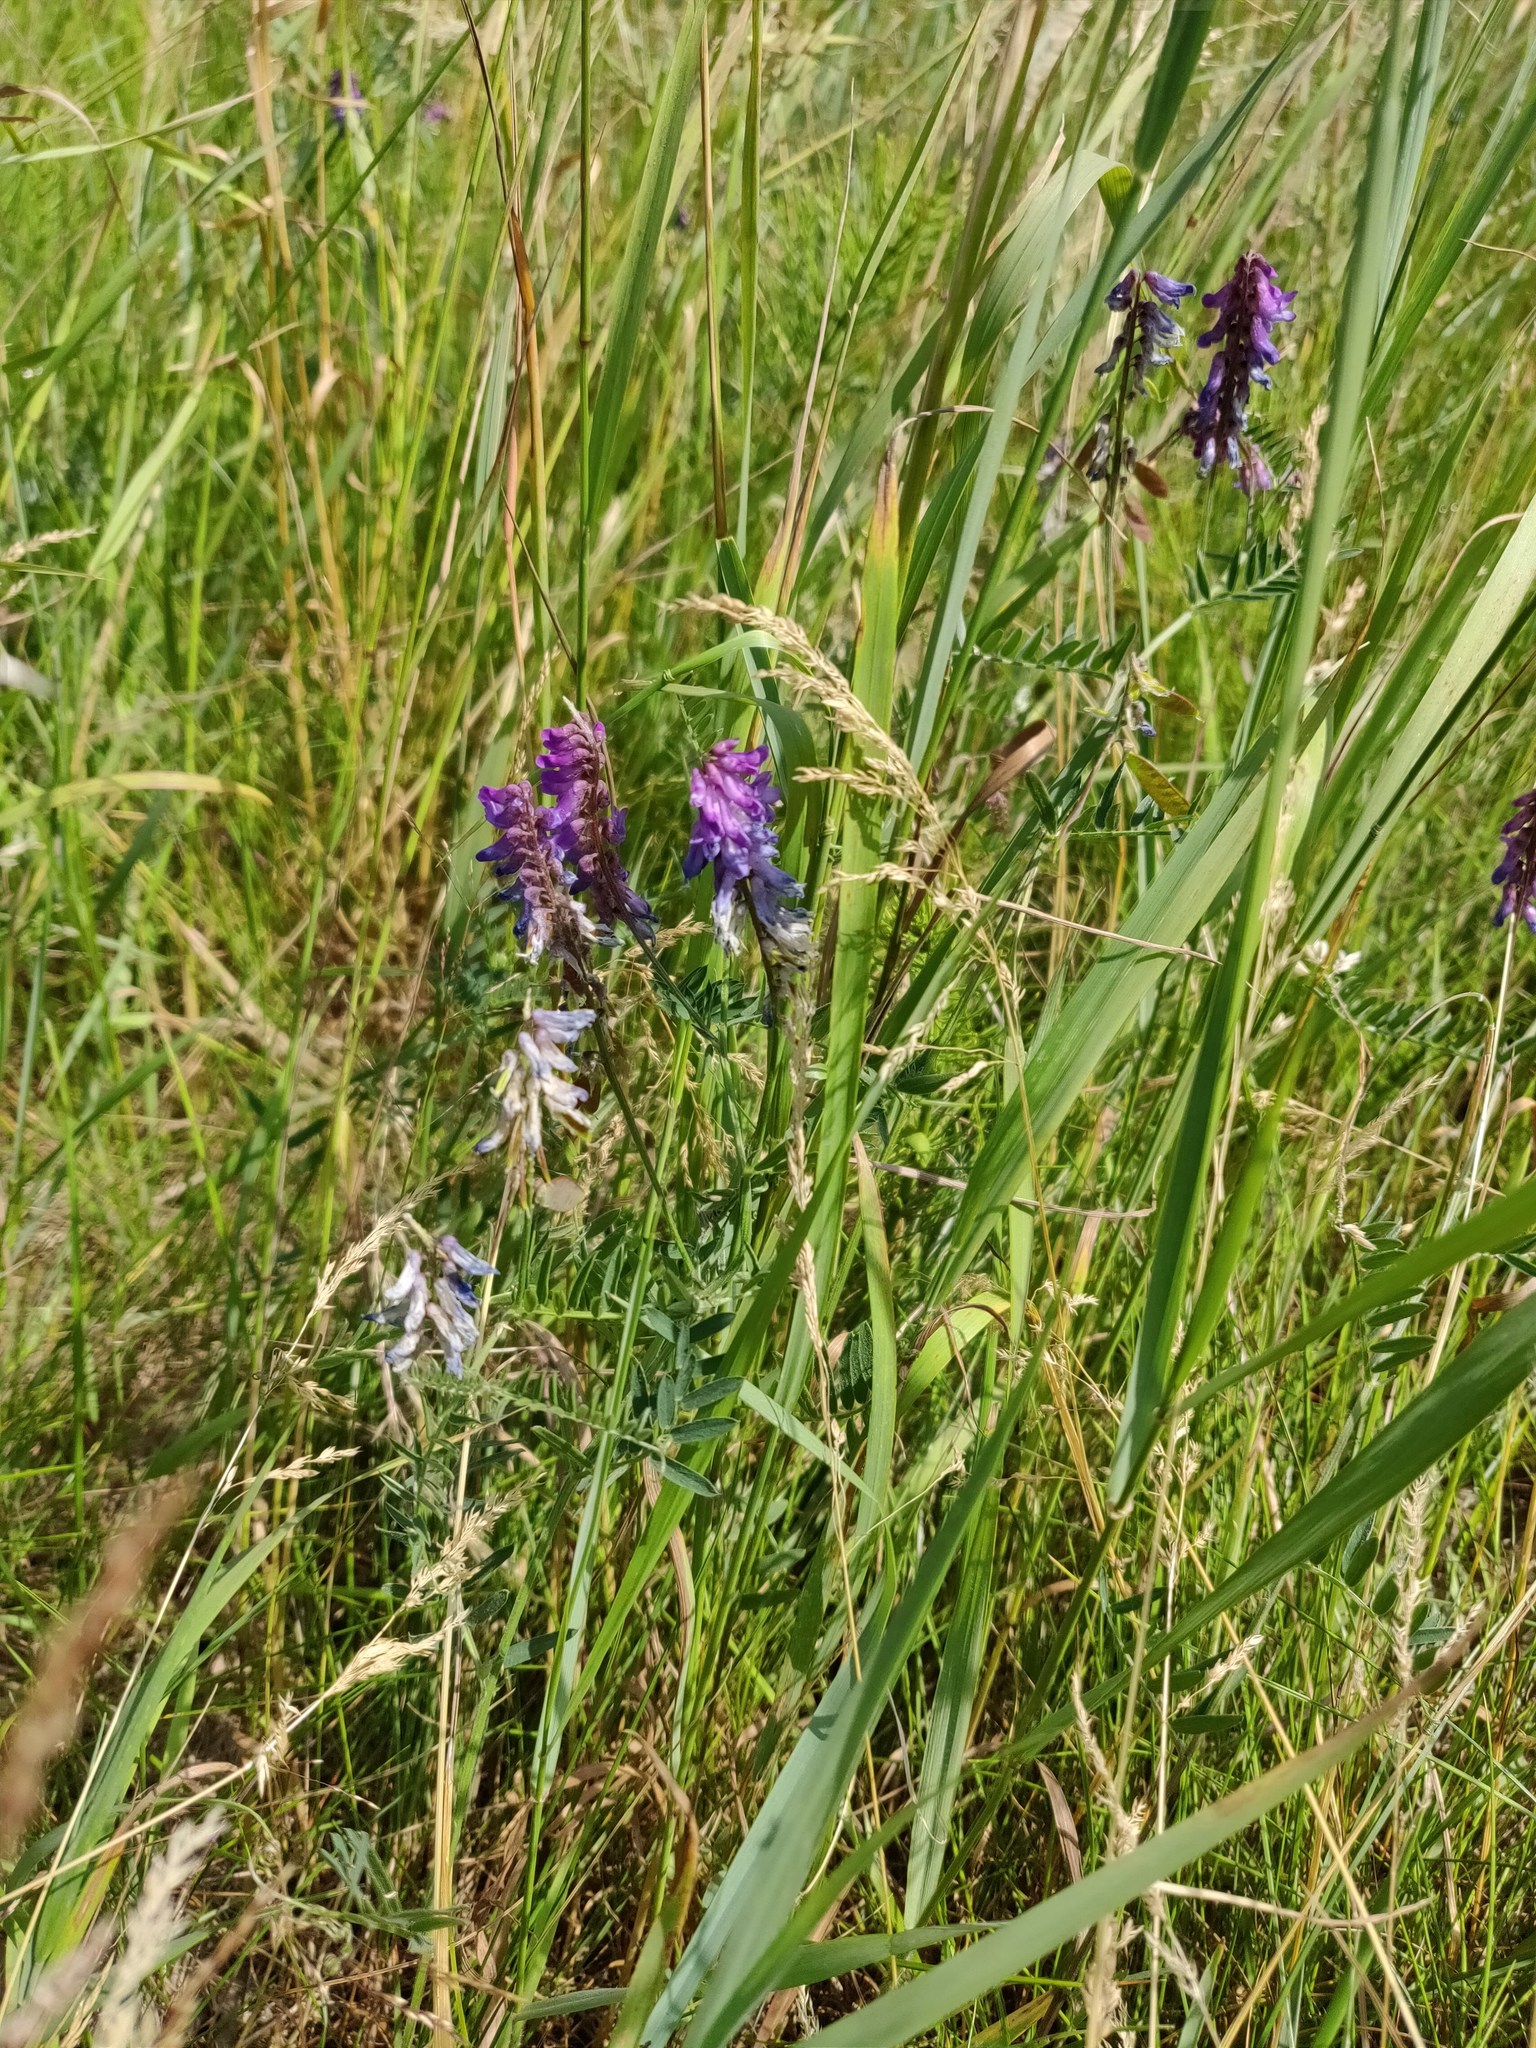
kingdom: Plantae
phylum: Tracheophyta
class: Magnoliopsida
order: Fabales
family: Fabaceae
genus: Vicia
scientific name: Vicia cracca
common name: Bird vetch
